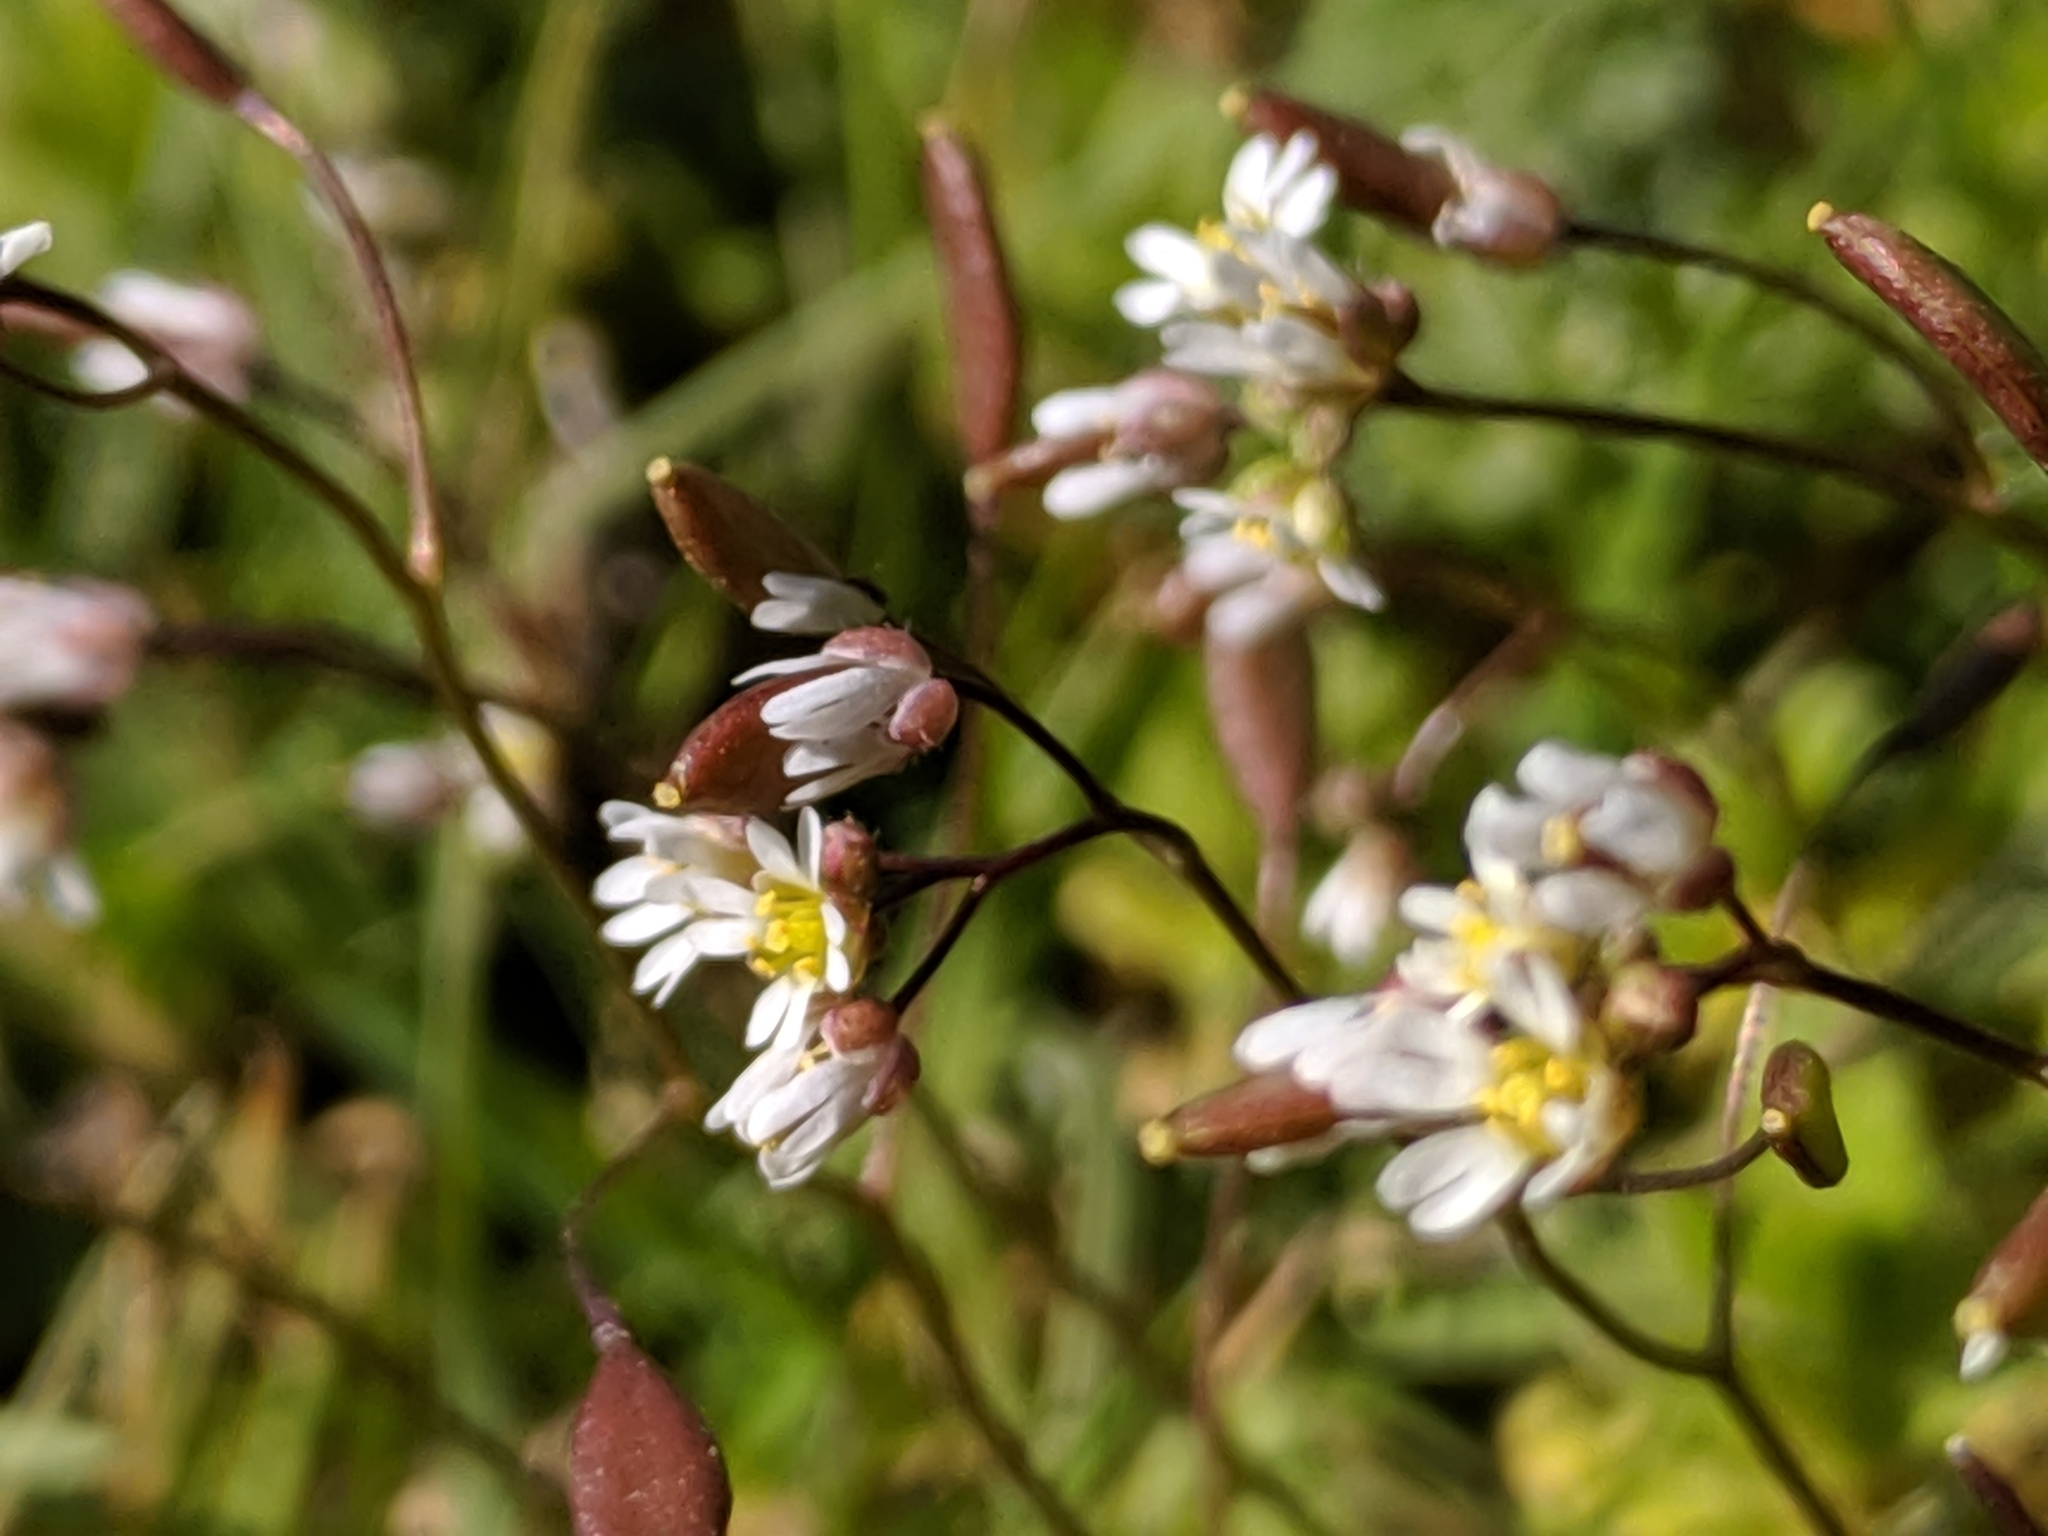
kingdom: Plantae
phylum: Tracheophyta
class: Magnoliopsida
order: Brassicales
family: Brassicaceae
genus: Draba
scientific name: Draba verna
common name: Spring draba
